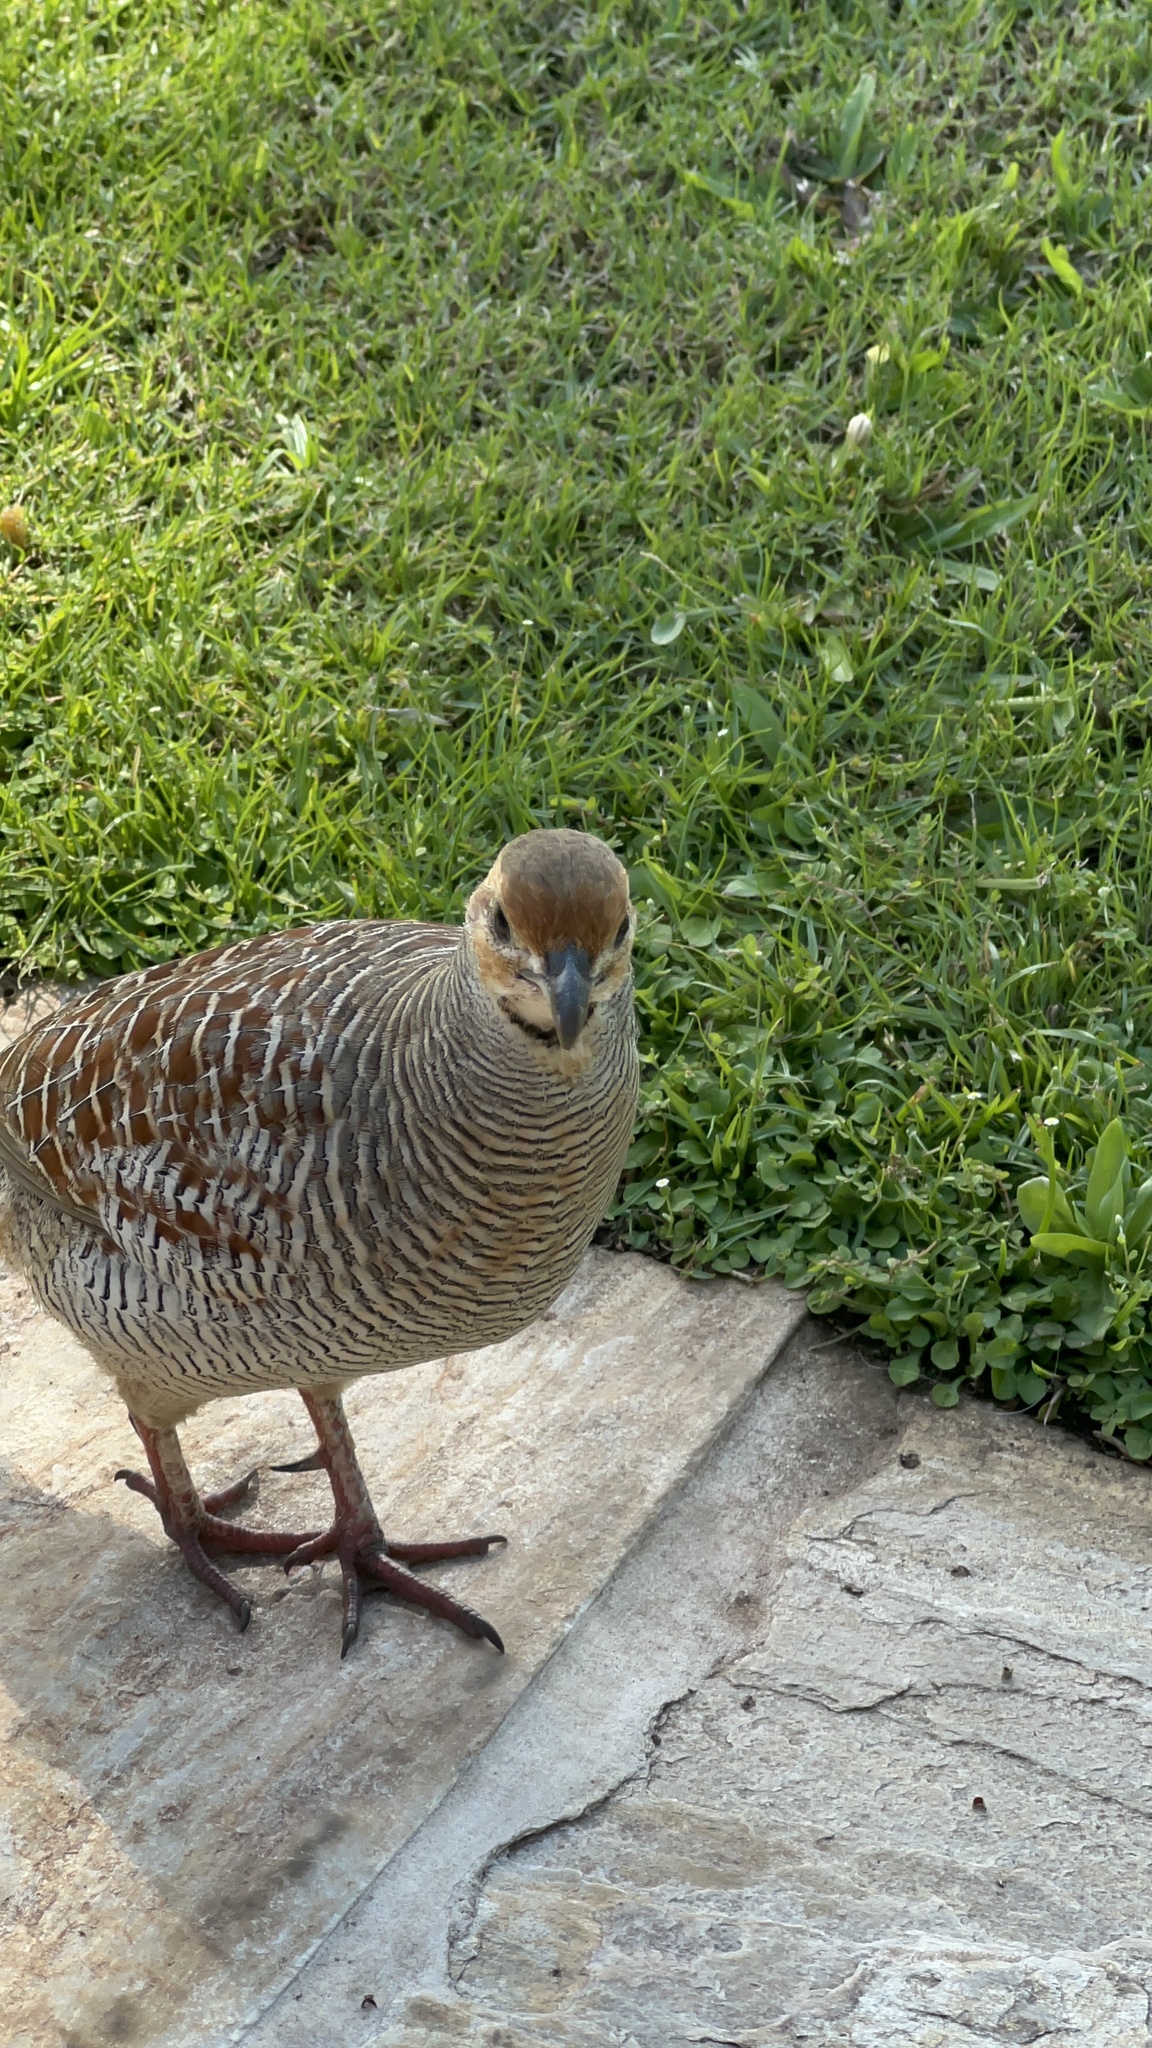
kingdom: Animalia
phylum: Chordata
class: Aves
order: Galliformes
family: Phasianidae
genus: Ortygornis
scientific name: Ortygornis pondicerianus
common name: Grey francolin
